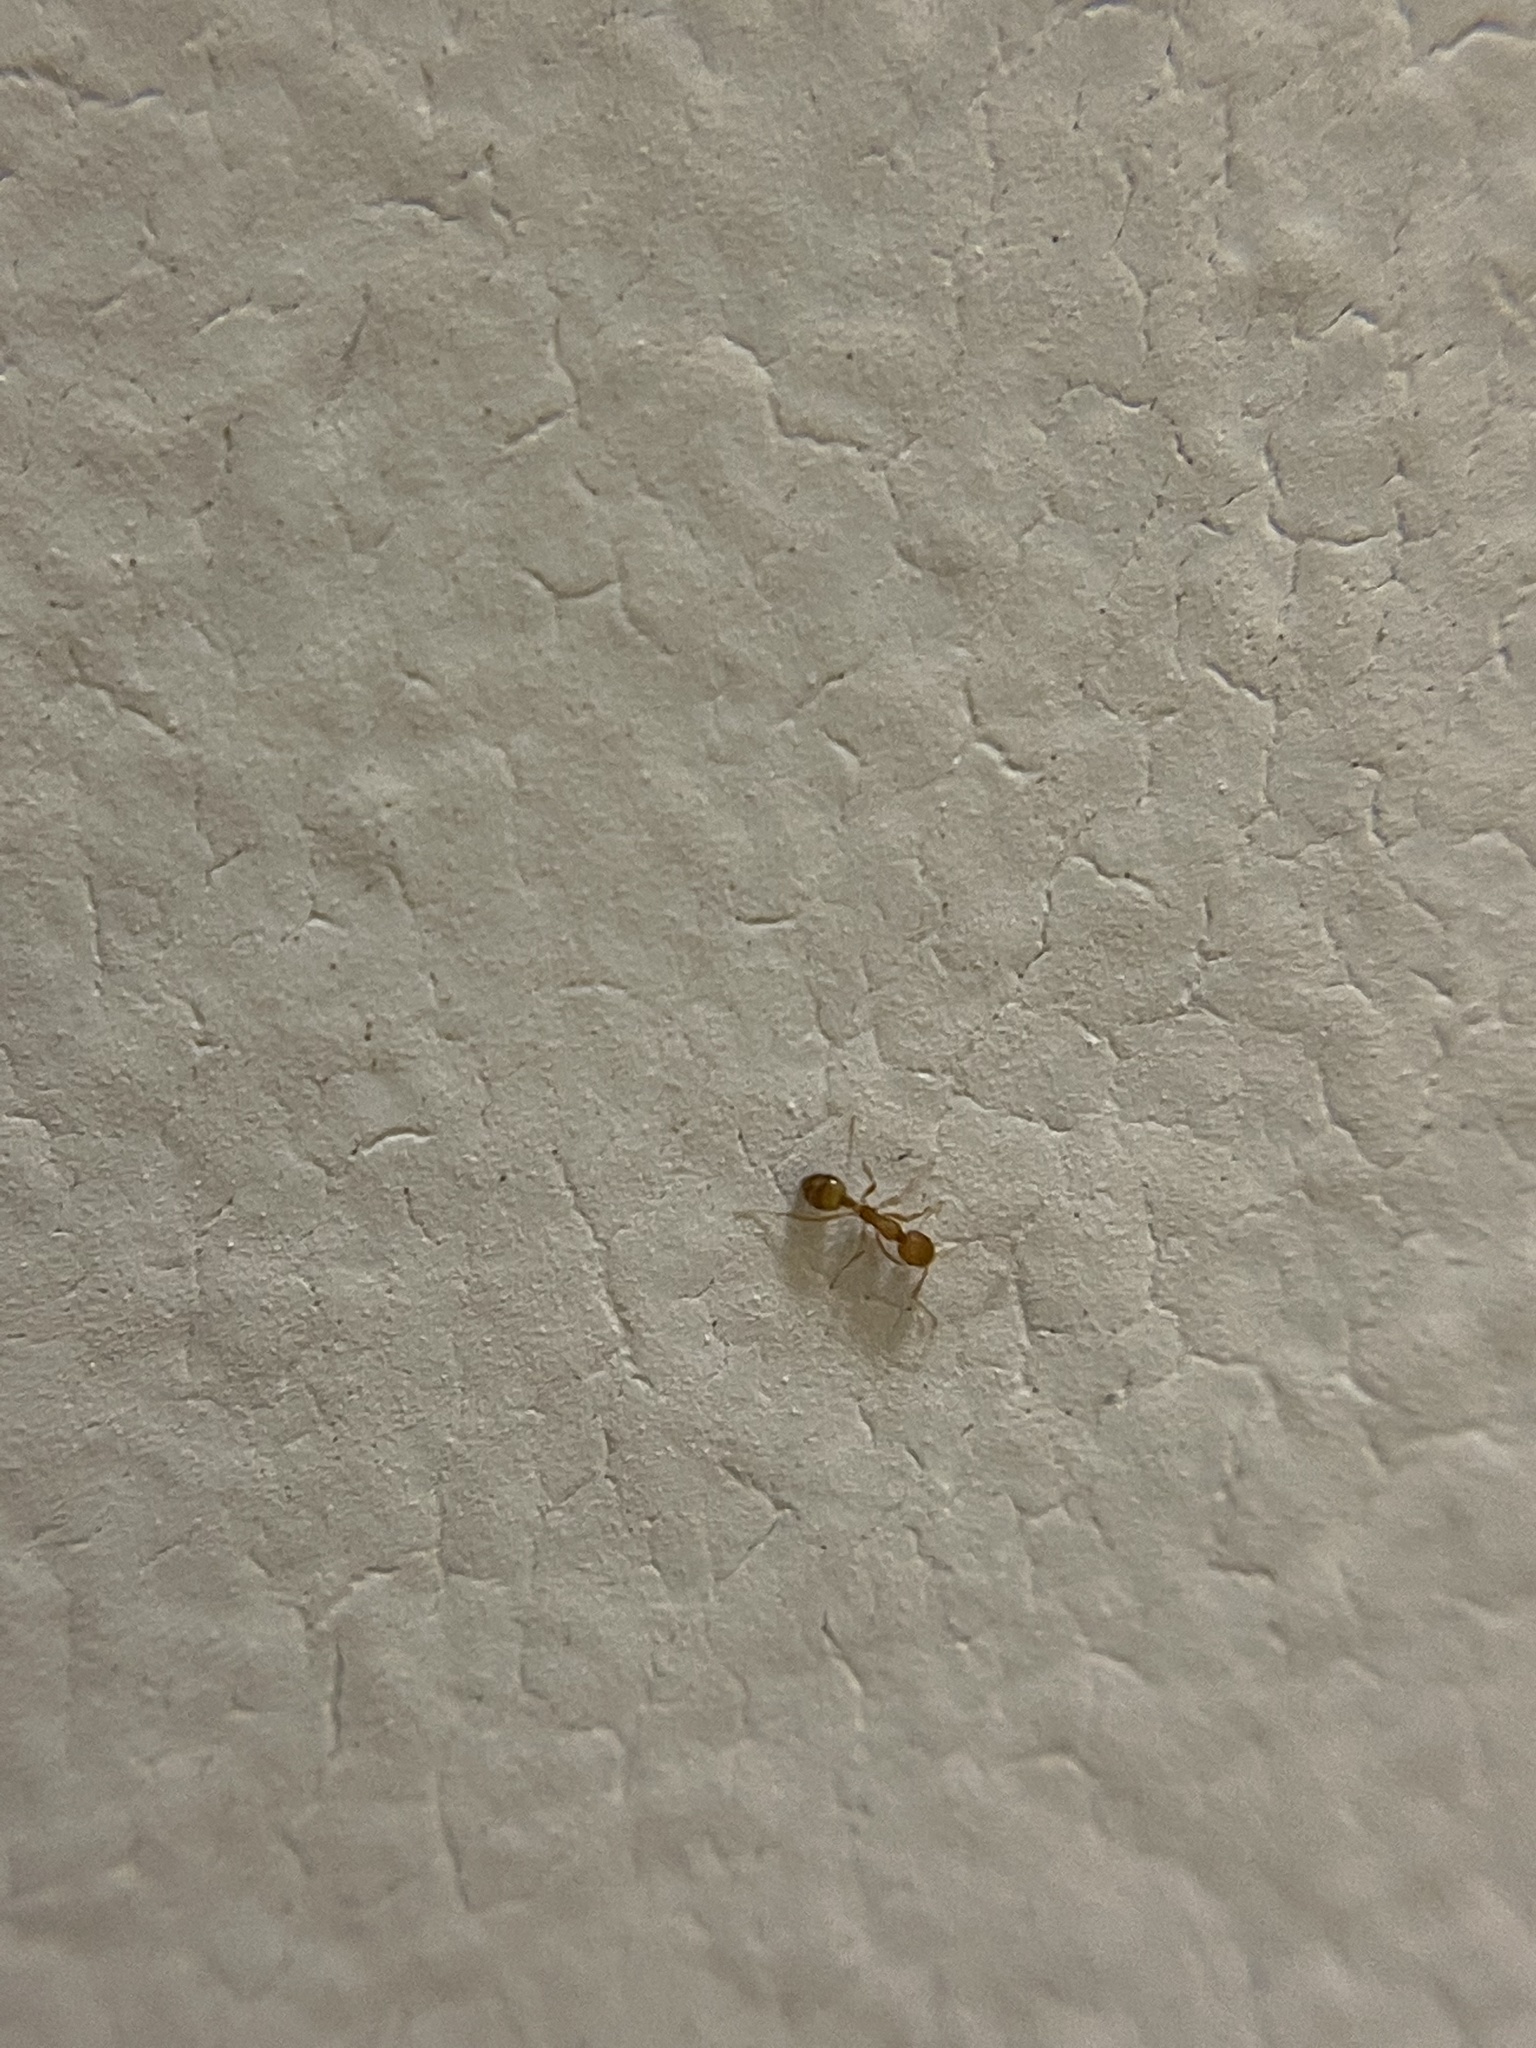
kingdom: Animalia
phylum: Arthropoda
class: Insecta
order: Hymenoptera
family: Formicidae
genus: Monomorium
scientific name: Monomorium pharaonis
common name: Pharaoh ant
